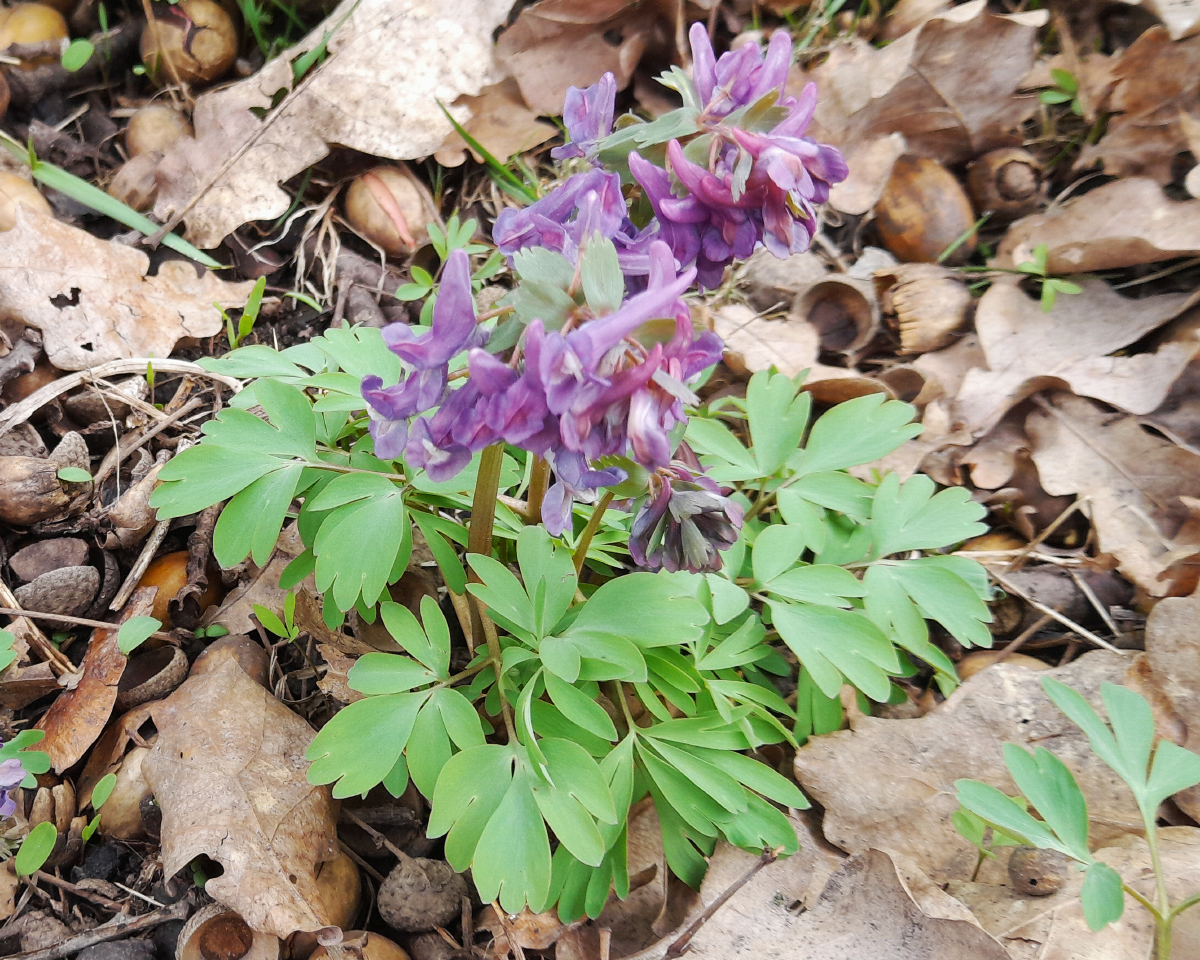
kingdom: Plantae
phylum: Tracheophyta
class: Magnoliopsida
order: Ranunculales
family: Papaveraceae
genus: Corydalis
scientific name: Corydalis solida
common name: Bird-in-a-bush
